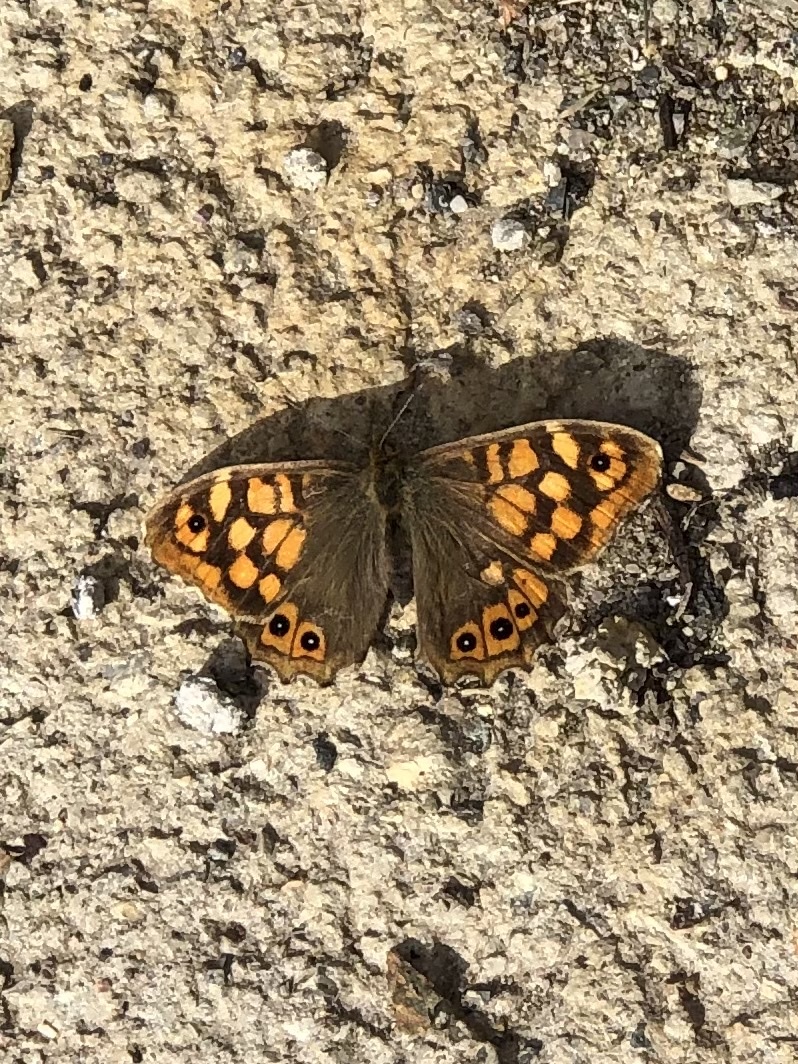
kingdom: Animalia
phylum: Arthropoda
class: Insecta
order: Lepidoptera
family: Nymphalidae
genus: Pararge
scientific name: Pararge aegeria
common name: Speckled wood
